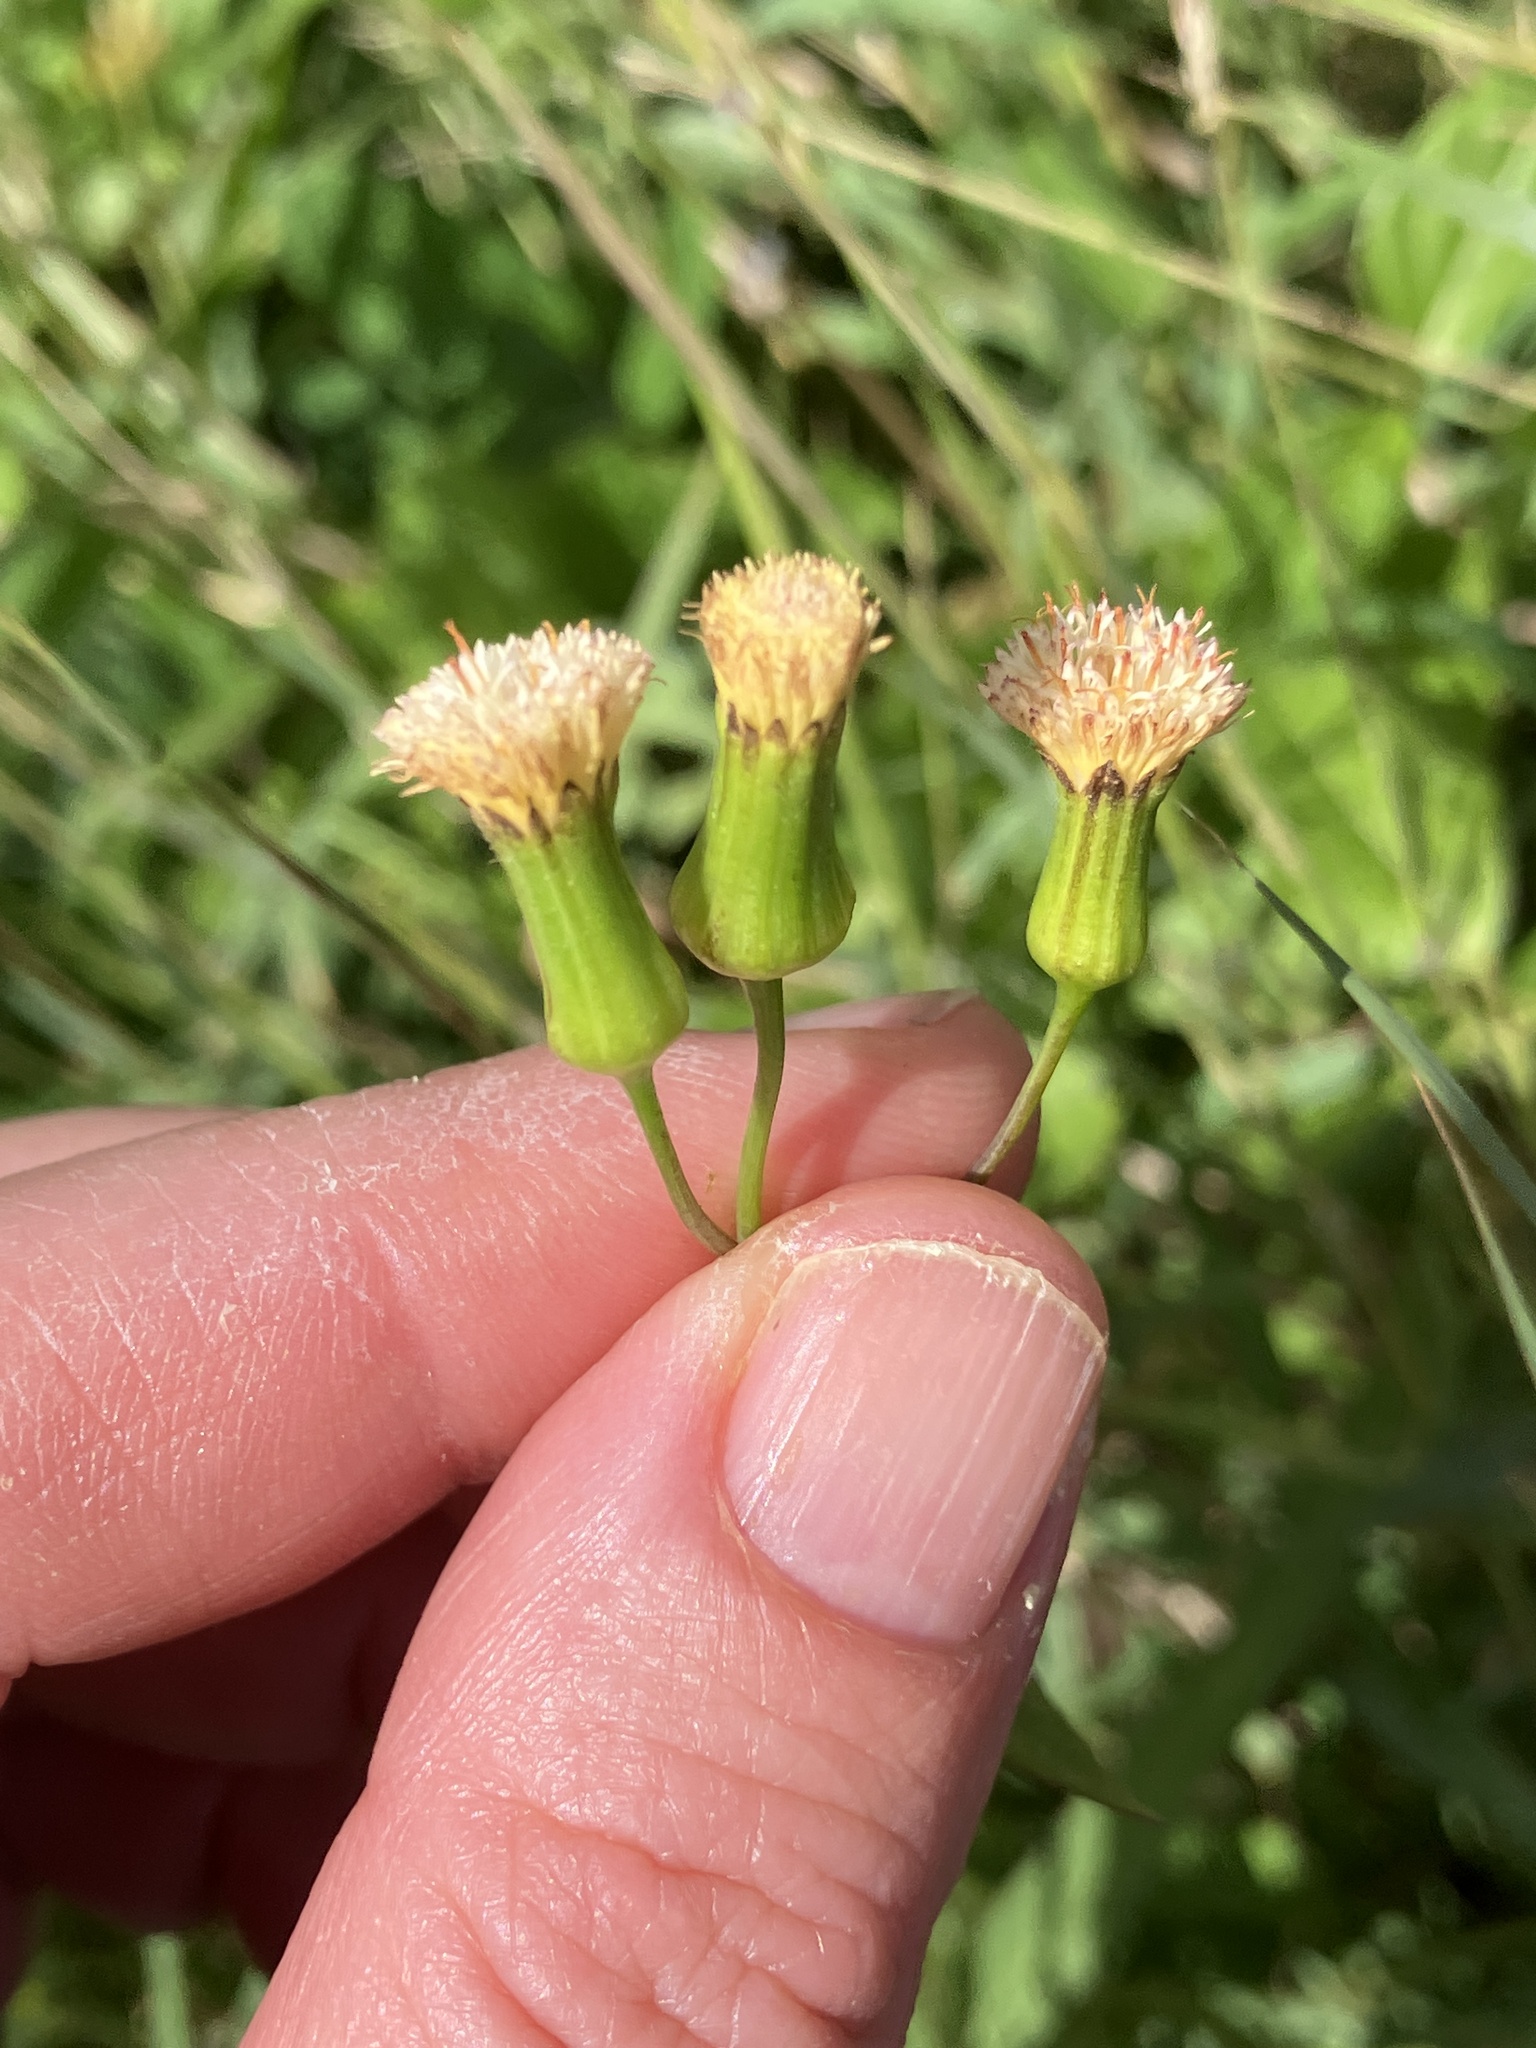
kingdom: Plantae
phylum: Tracheophyta
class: Magnoliopsida
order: Asterales
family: Asteraceae
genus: Emilia
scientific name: Emilia praetermissa
